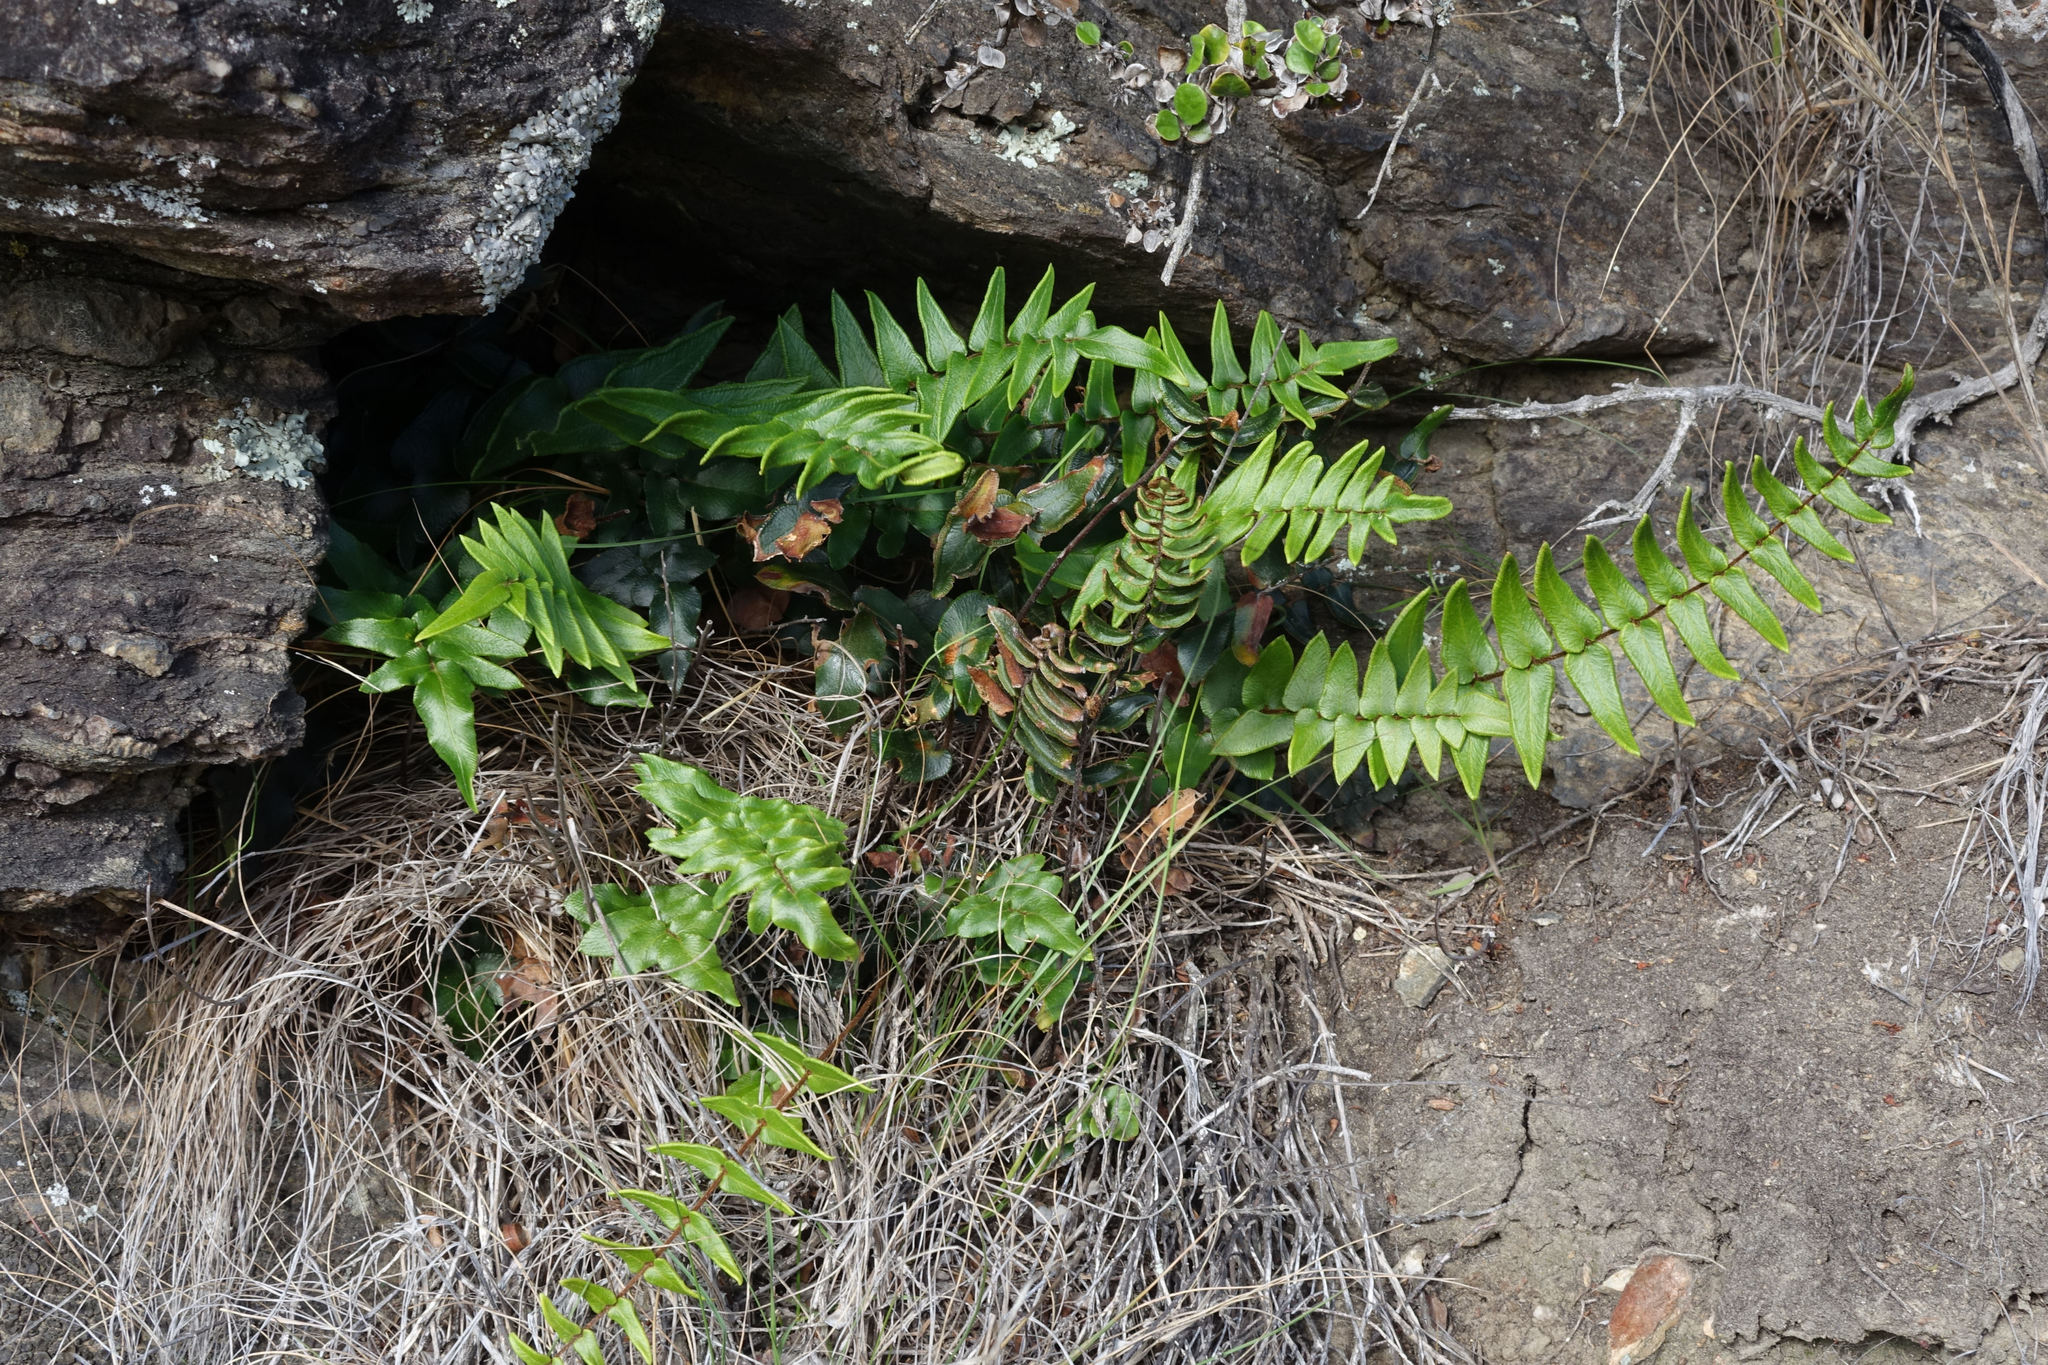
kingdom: Plantae
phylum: Tracheophyta
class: Polypodiopsida
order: Polypodiales
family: Pteridaceae
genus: Pellaea
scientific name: Pellaea calidirupium
